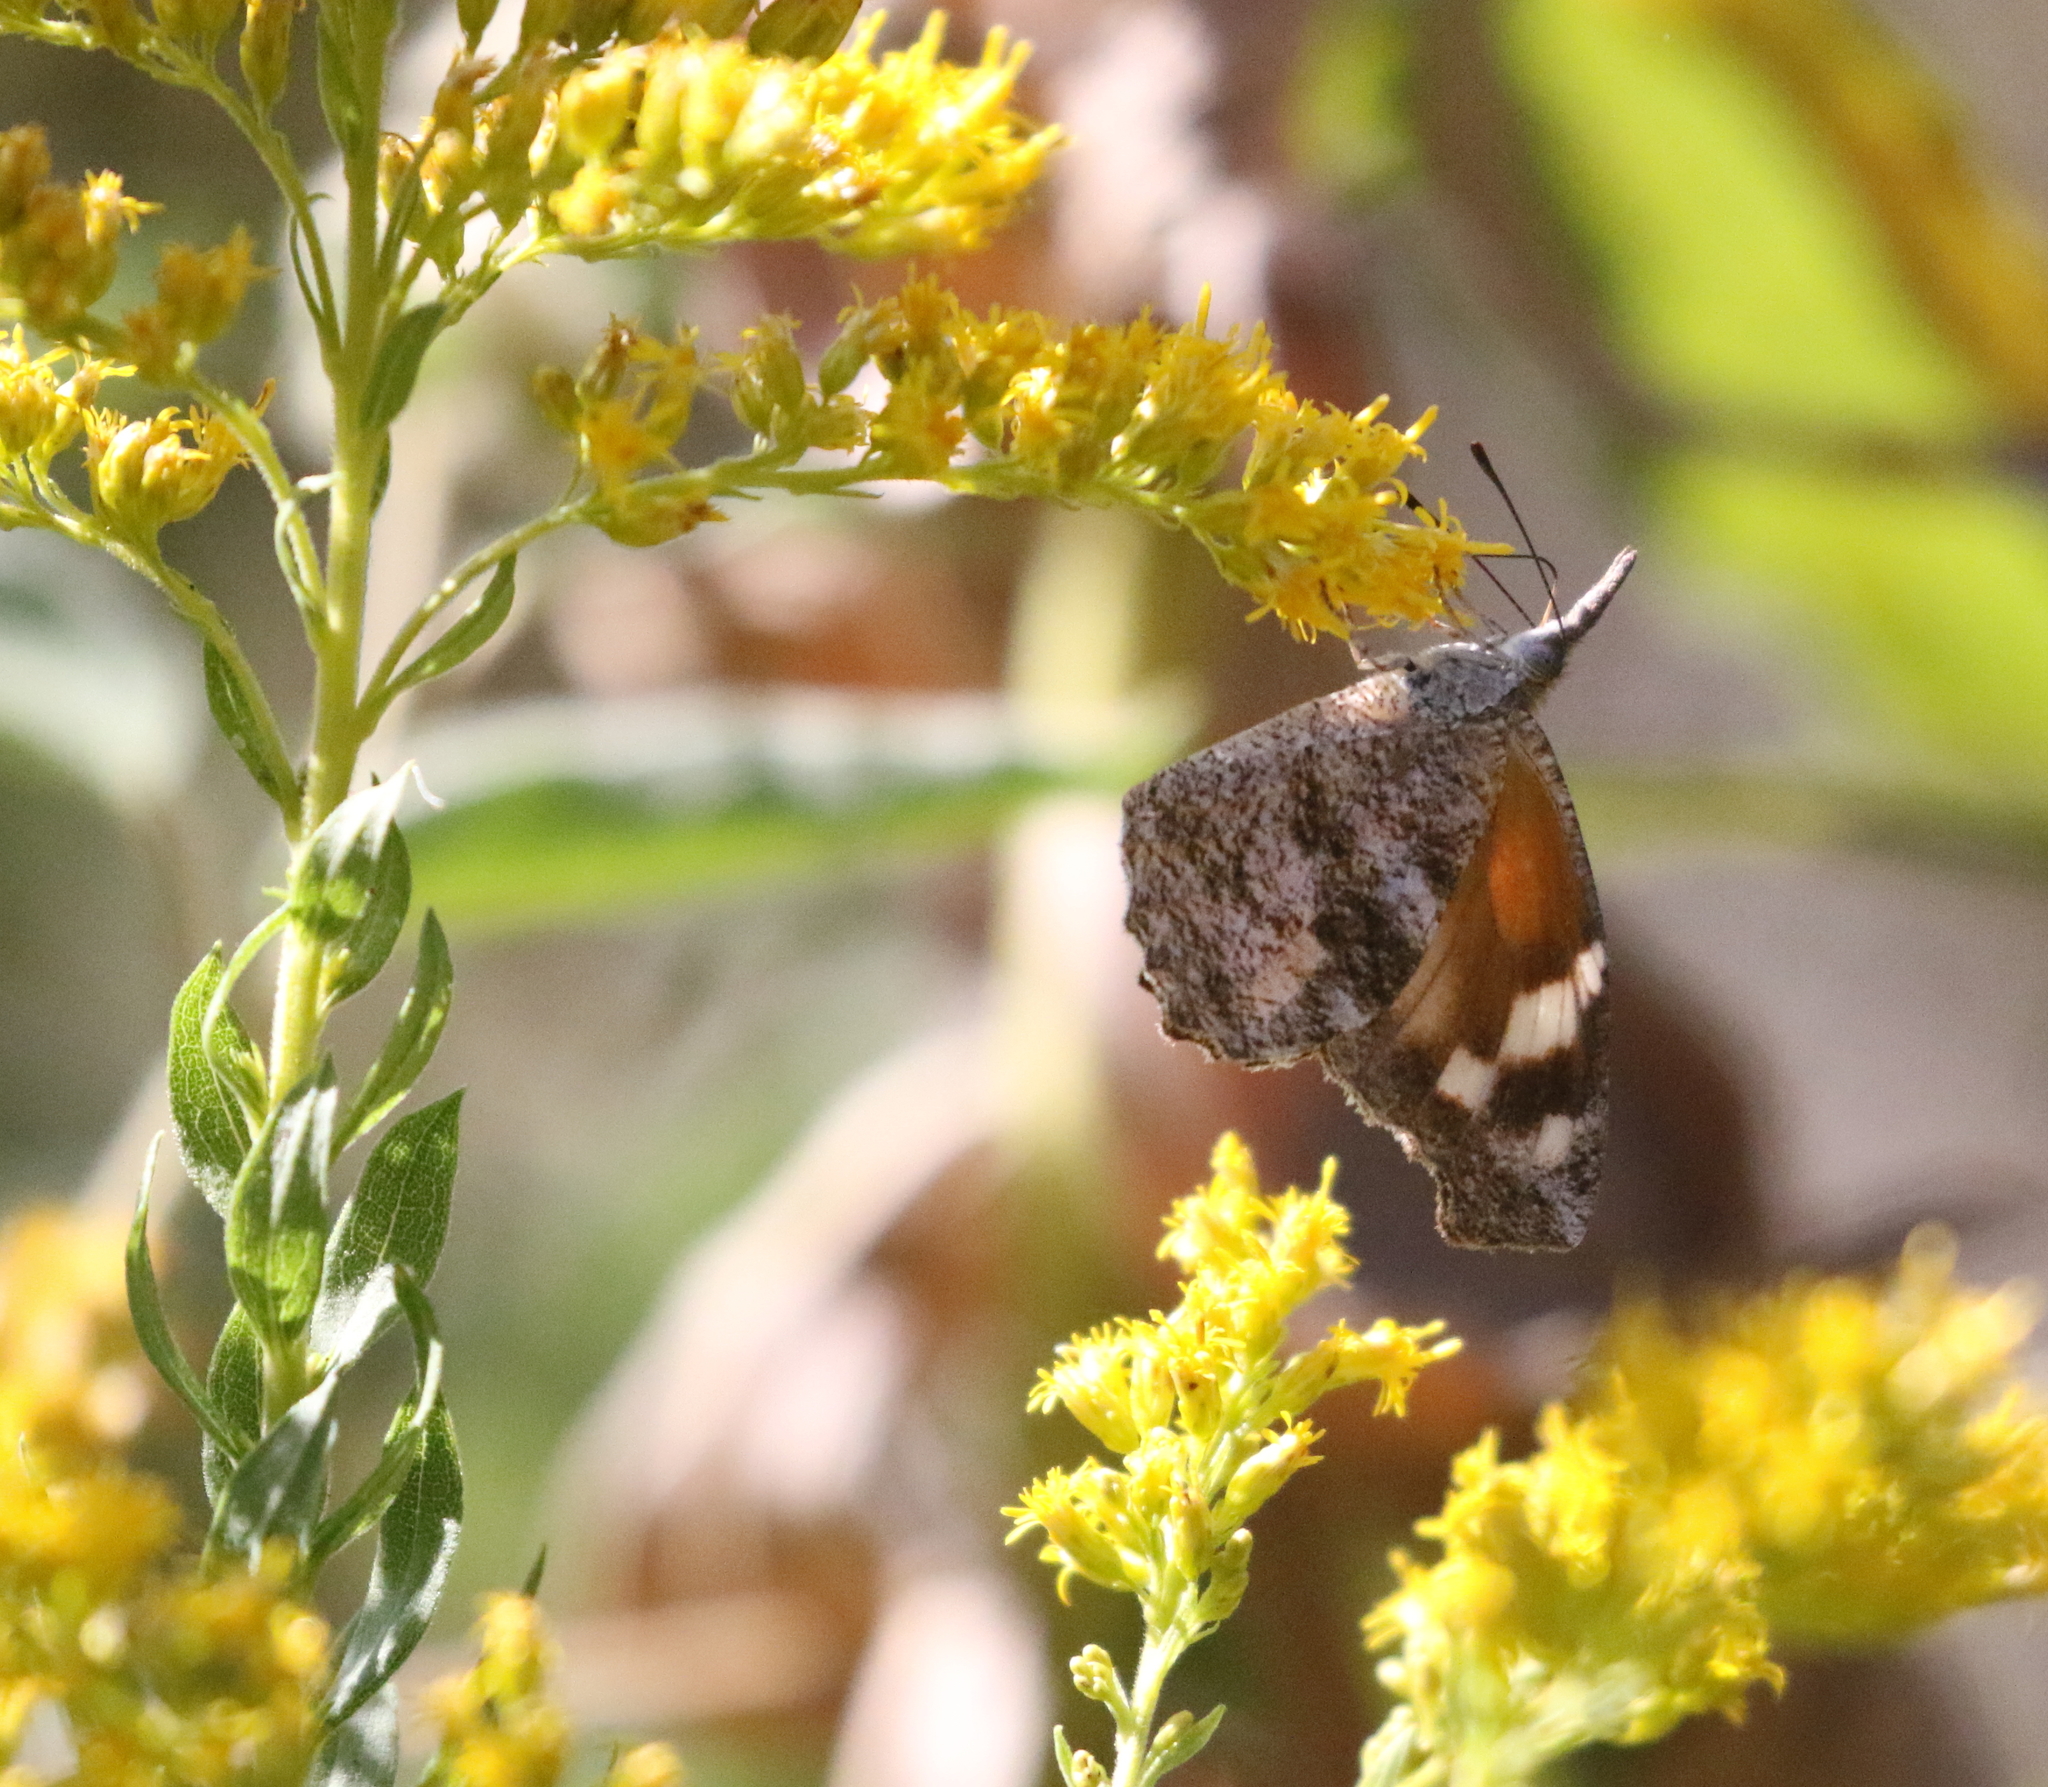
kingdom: Animalia
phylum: Arthropoda
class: Insecta
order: Lepidoptera
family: Nymphalidae
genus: Libytheana
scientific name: Libytheana carinenta
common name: American snout
